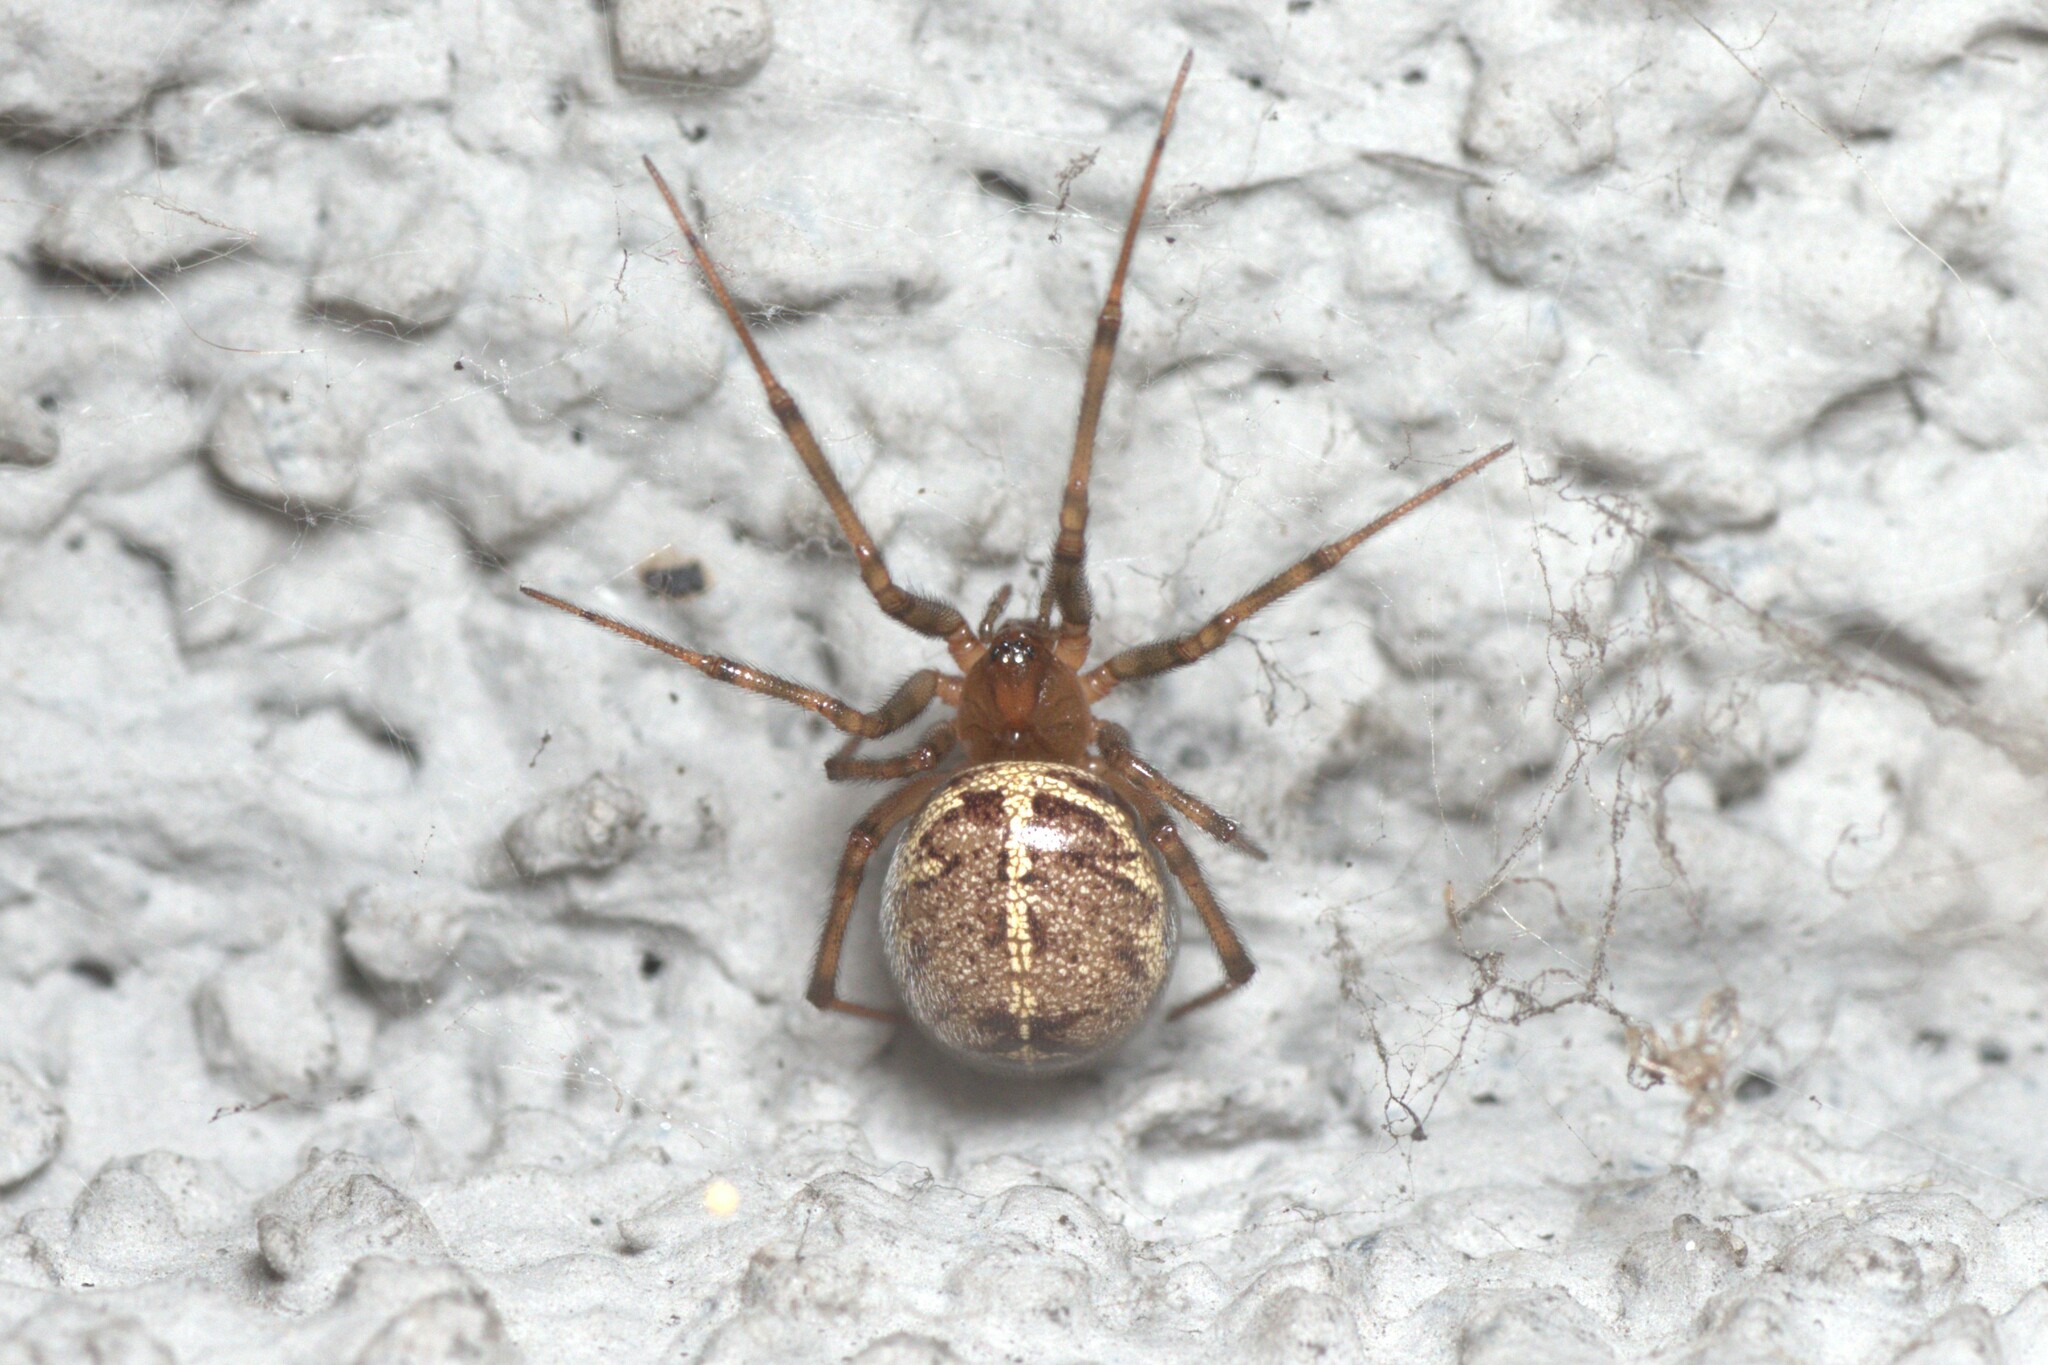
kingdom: Animalia
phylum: Arthropoda
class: Arachnida
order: Araneae
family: Theridiidae
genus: Steatoda
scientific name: Steatoda castanea
